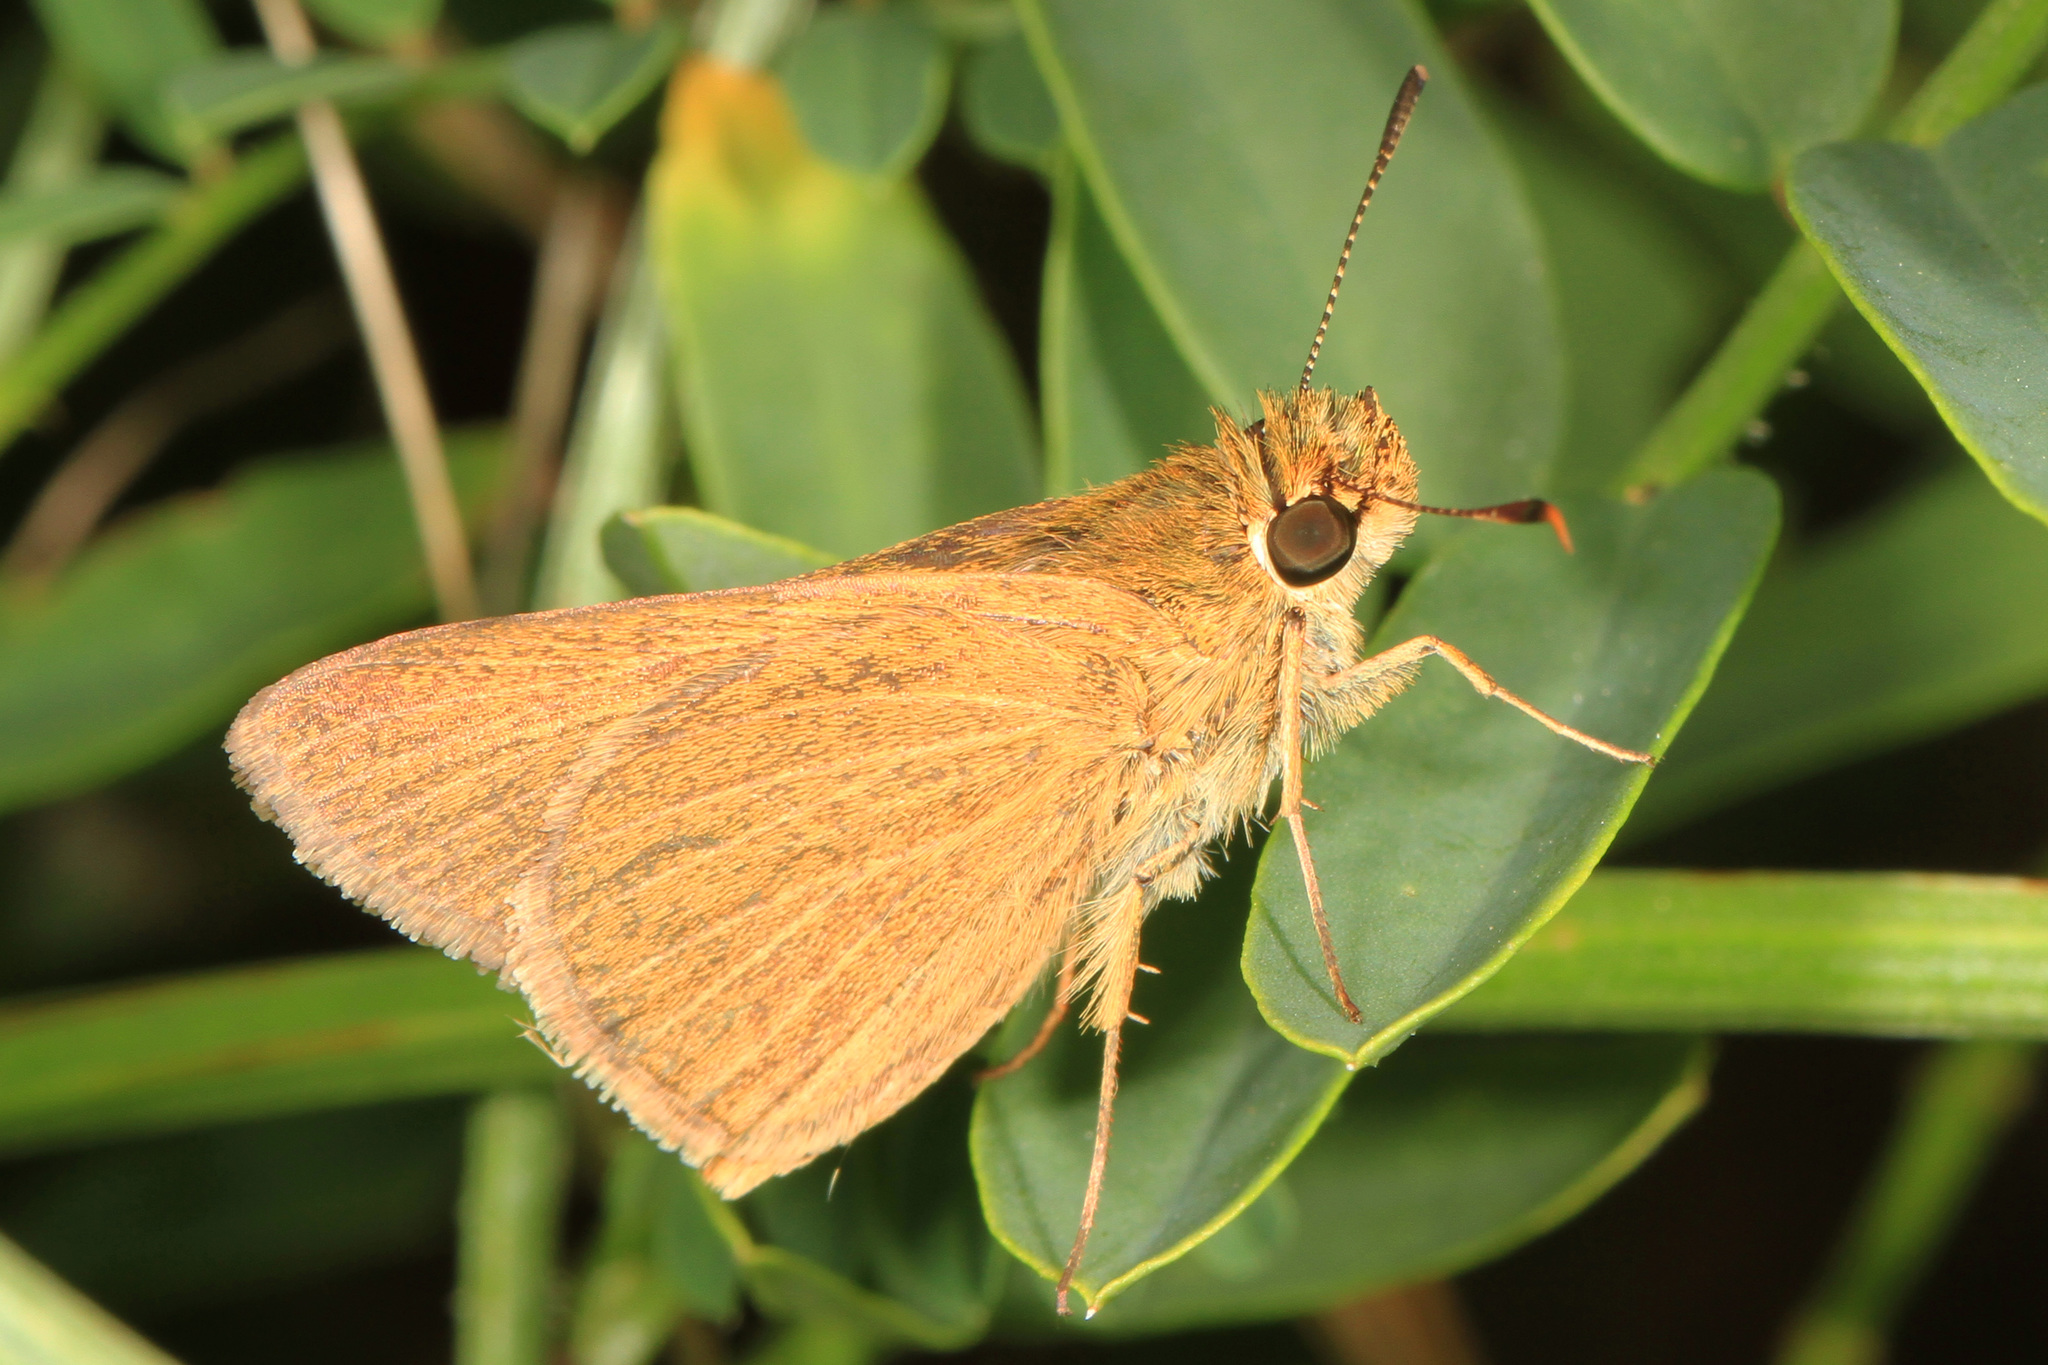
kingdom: Animalia
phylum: Arthropoda
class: Insecta
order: Lepidoptera
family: Hesperiidae
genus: Nastra
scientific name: Nastra lherminier
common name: Swarthy skipper
